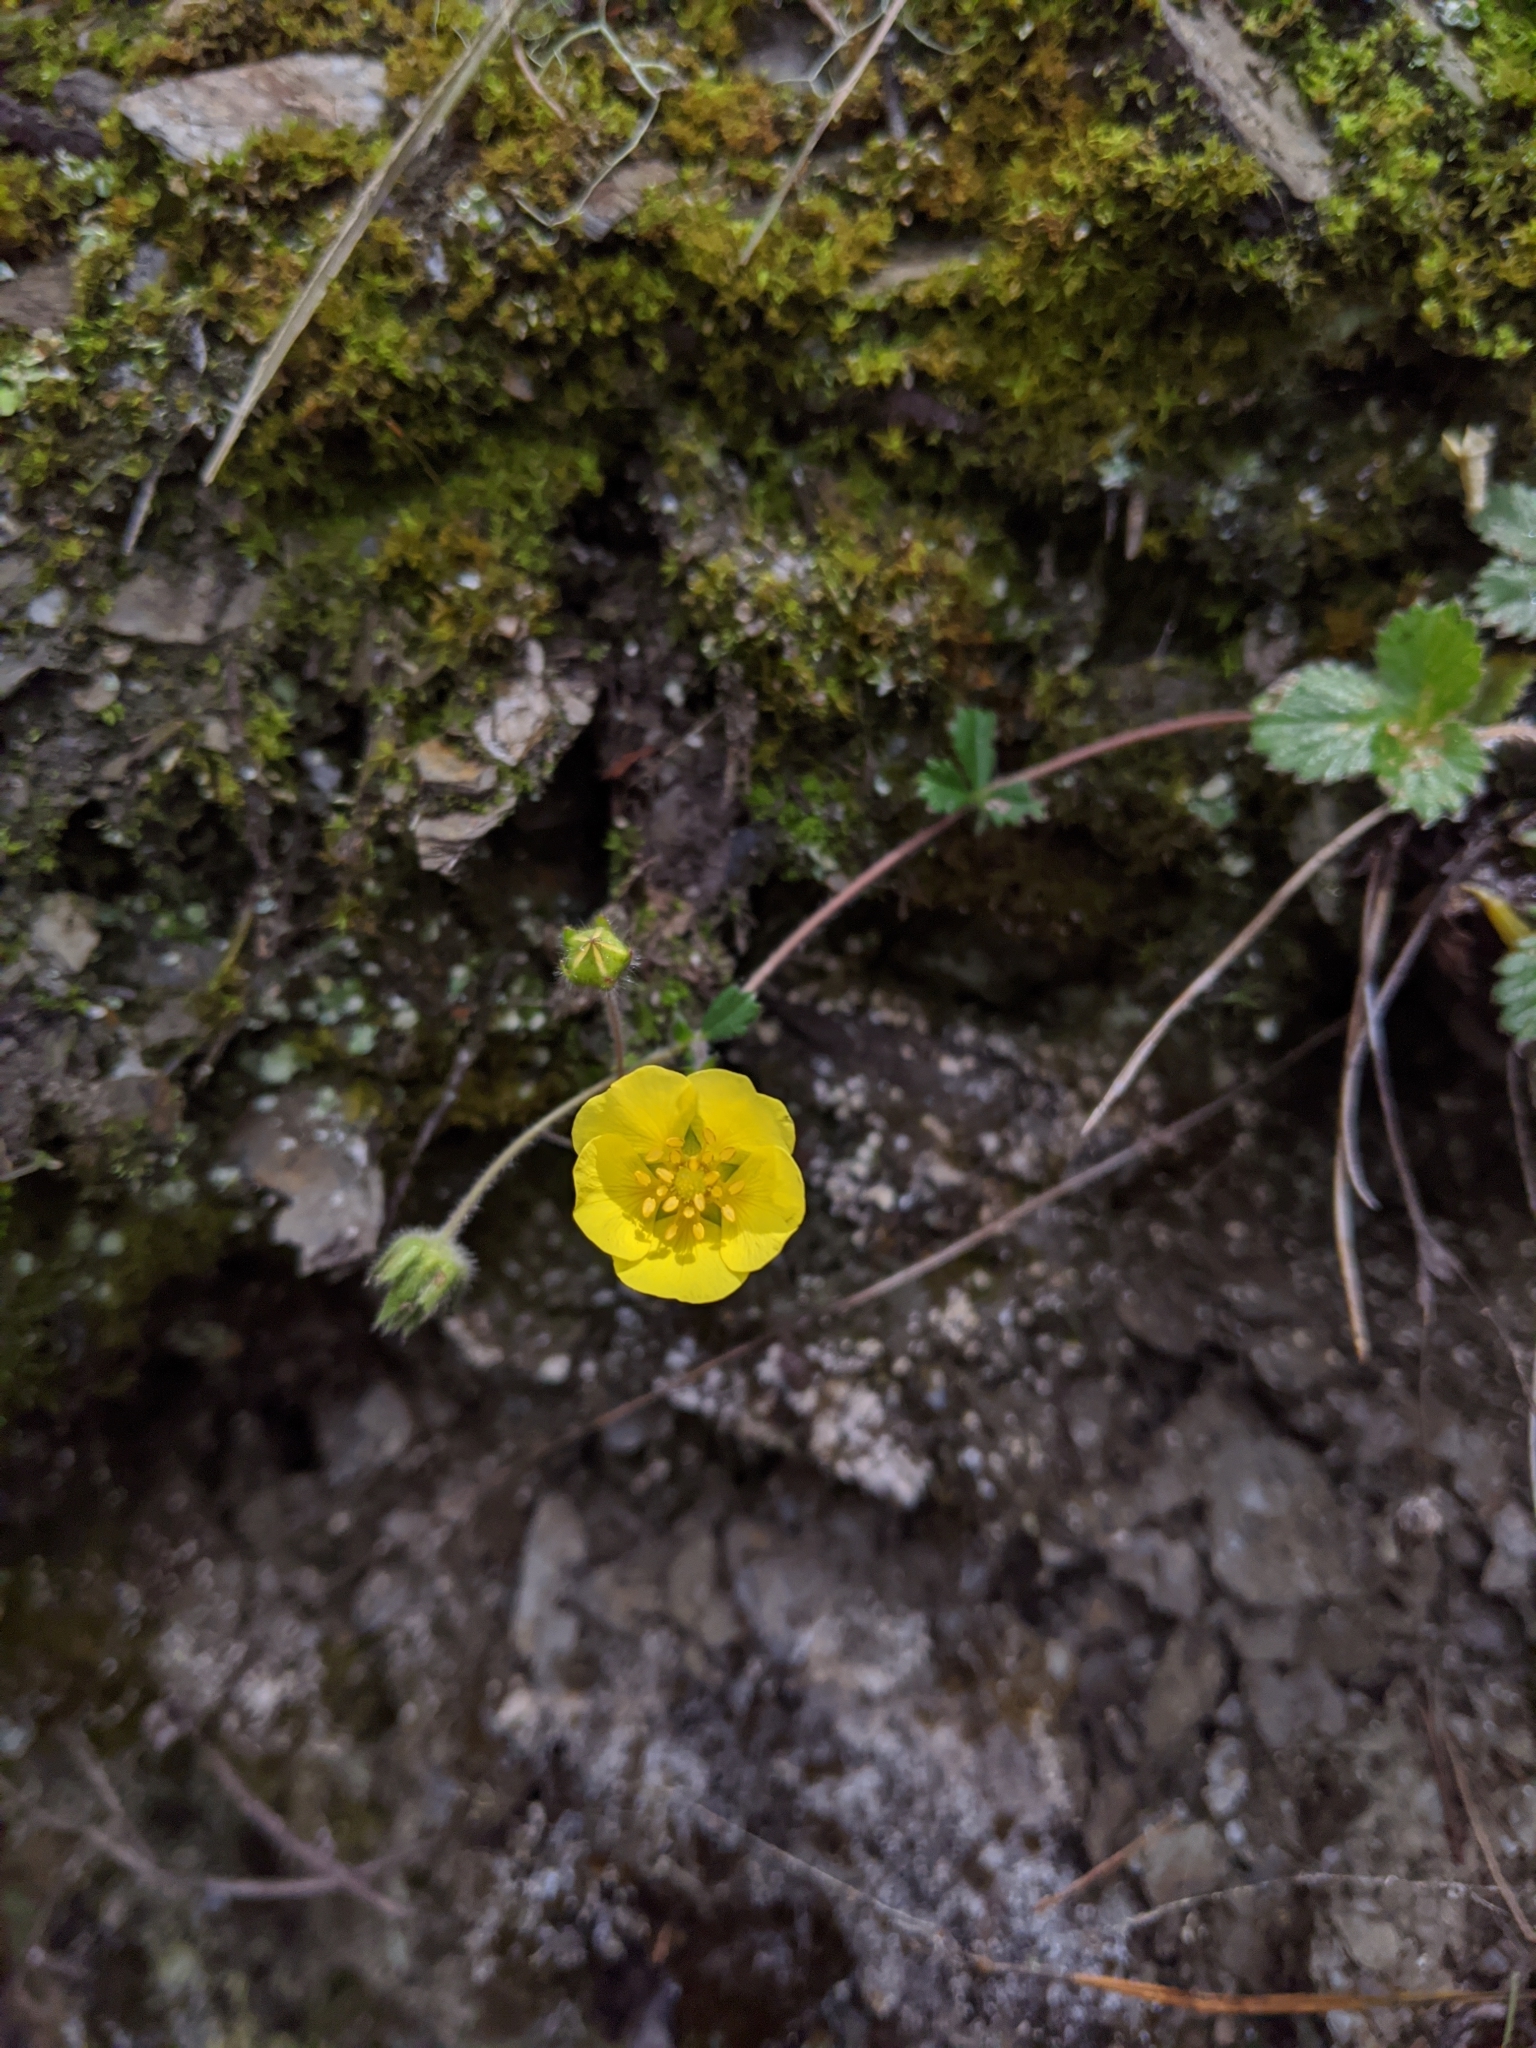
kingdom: Plantae
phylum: Tracheophyta
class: Magnoliopsida
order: Rosales
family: Rosaceae
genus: Potentilla
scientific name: Potentilla matsumurae
